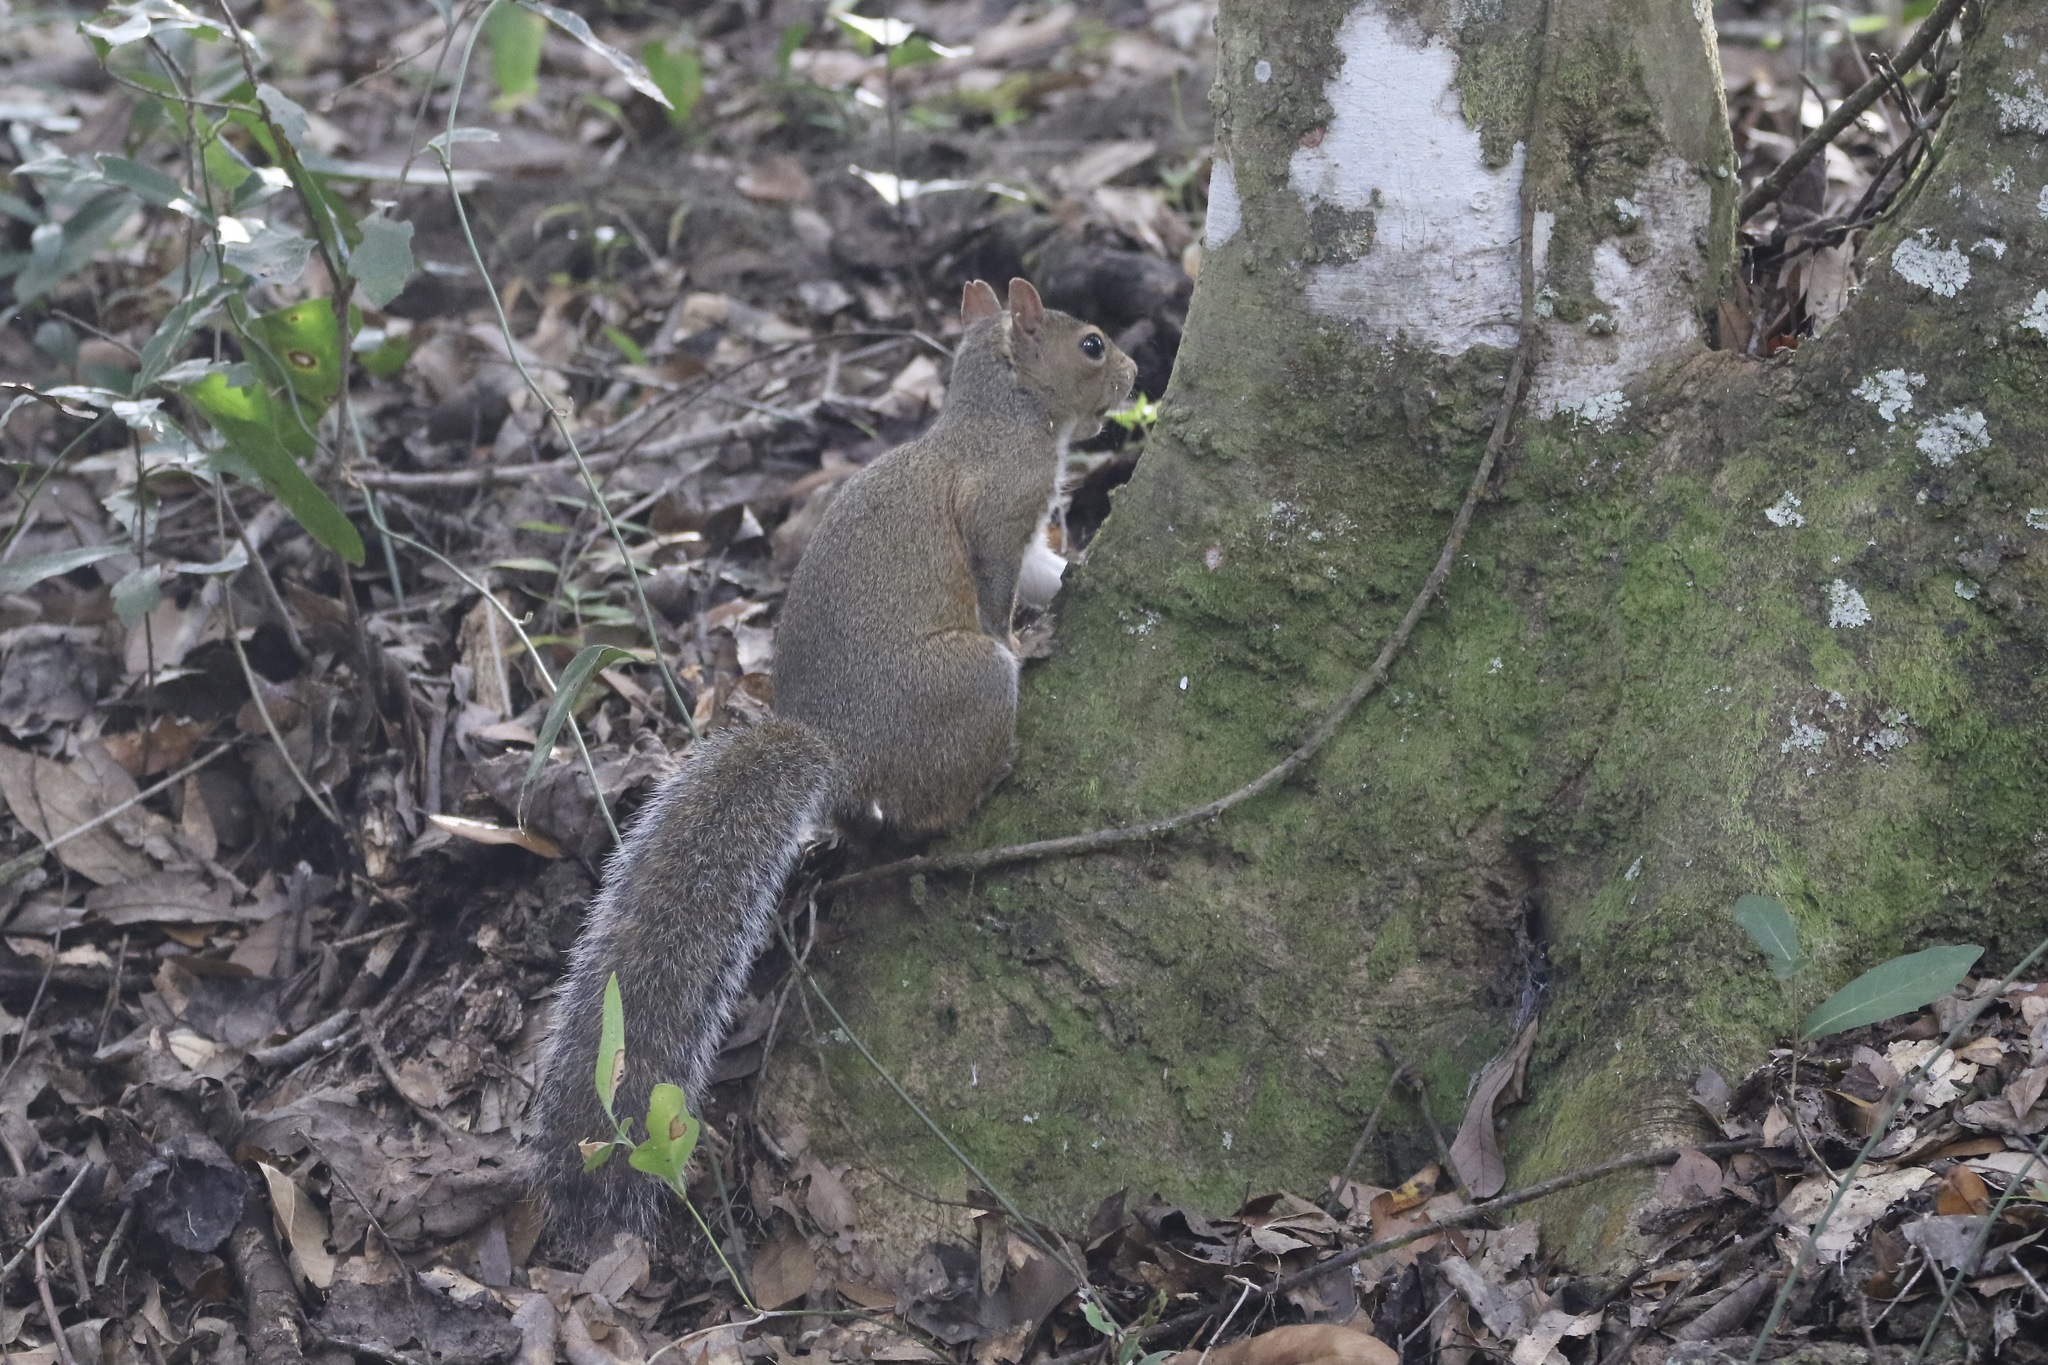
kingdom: Animalia
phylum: Chordata
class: Mammalia
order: Rodentia
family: Sciuridae
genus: Sciurus
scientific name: Sciurus carolinensis
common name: Eastern gray squirrel
